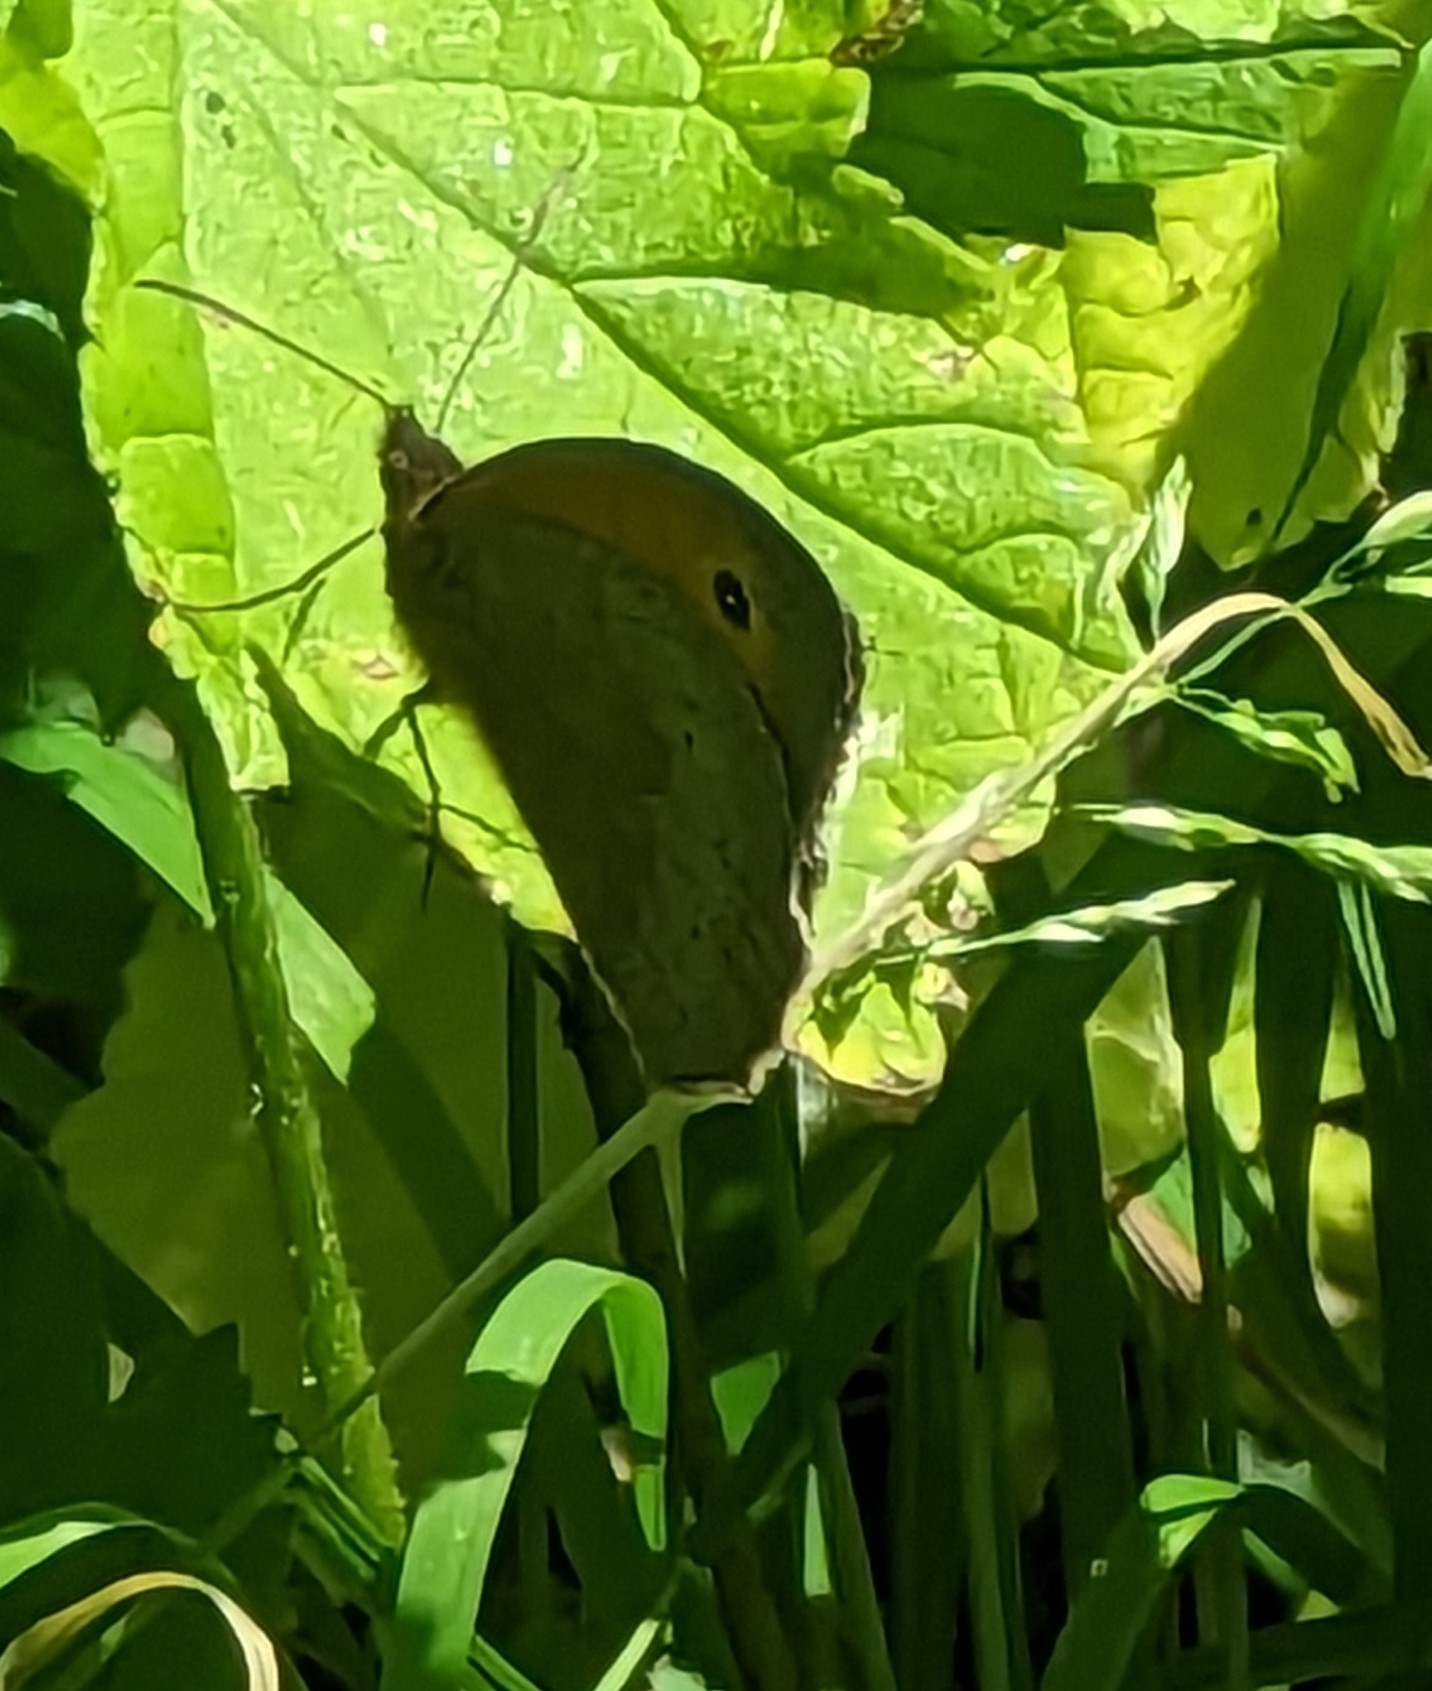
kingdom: Animalia
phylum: Arthropoda
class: Insecta
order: Lepidoptera
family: Nymphalidae
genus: Maniola
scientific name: Maniola jurtina
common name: Meadow brown
